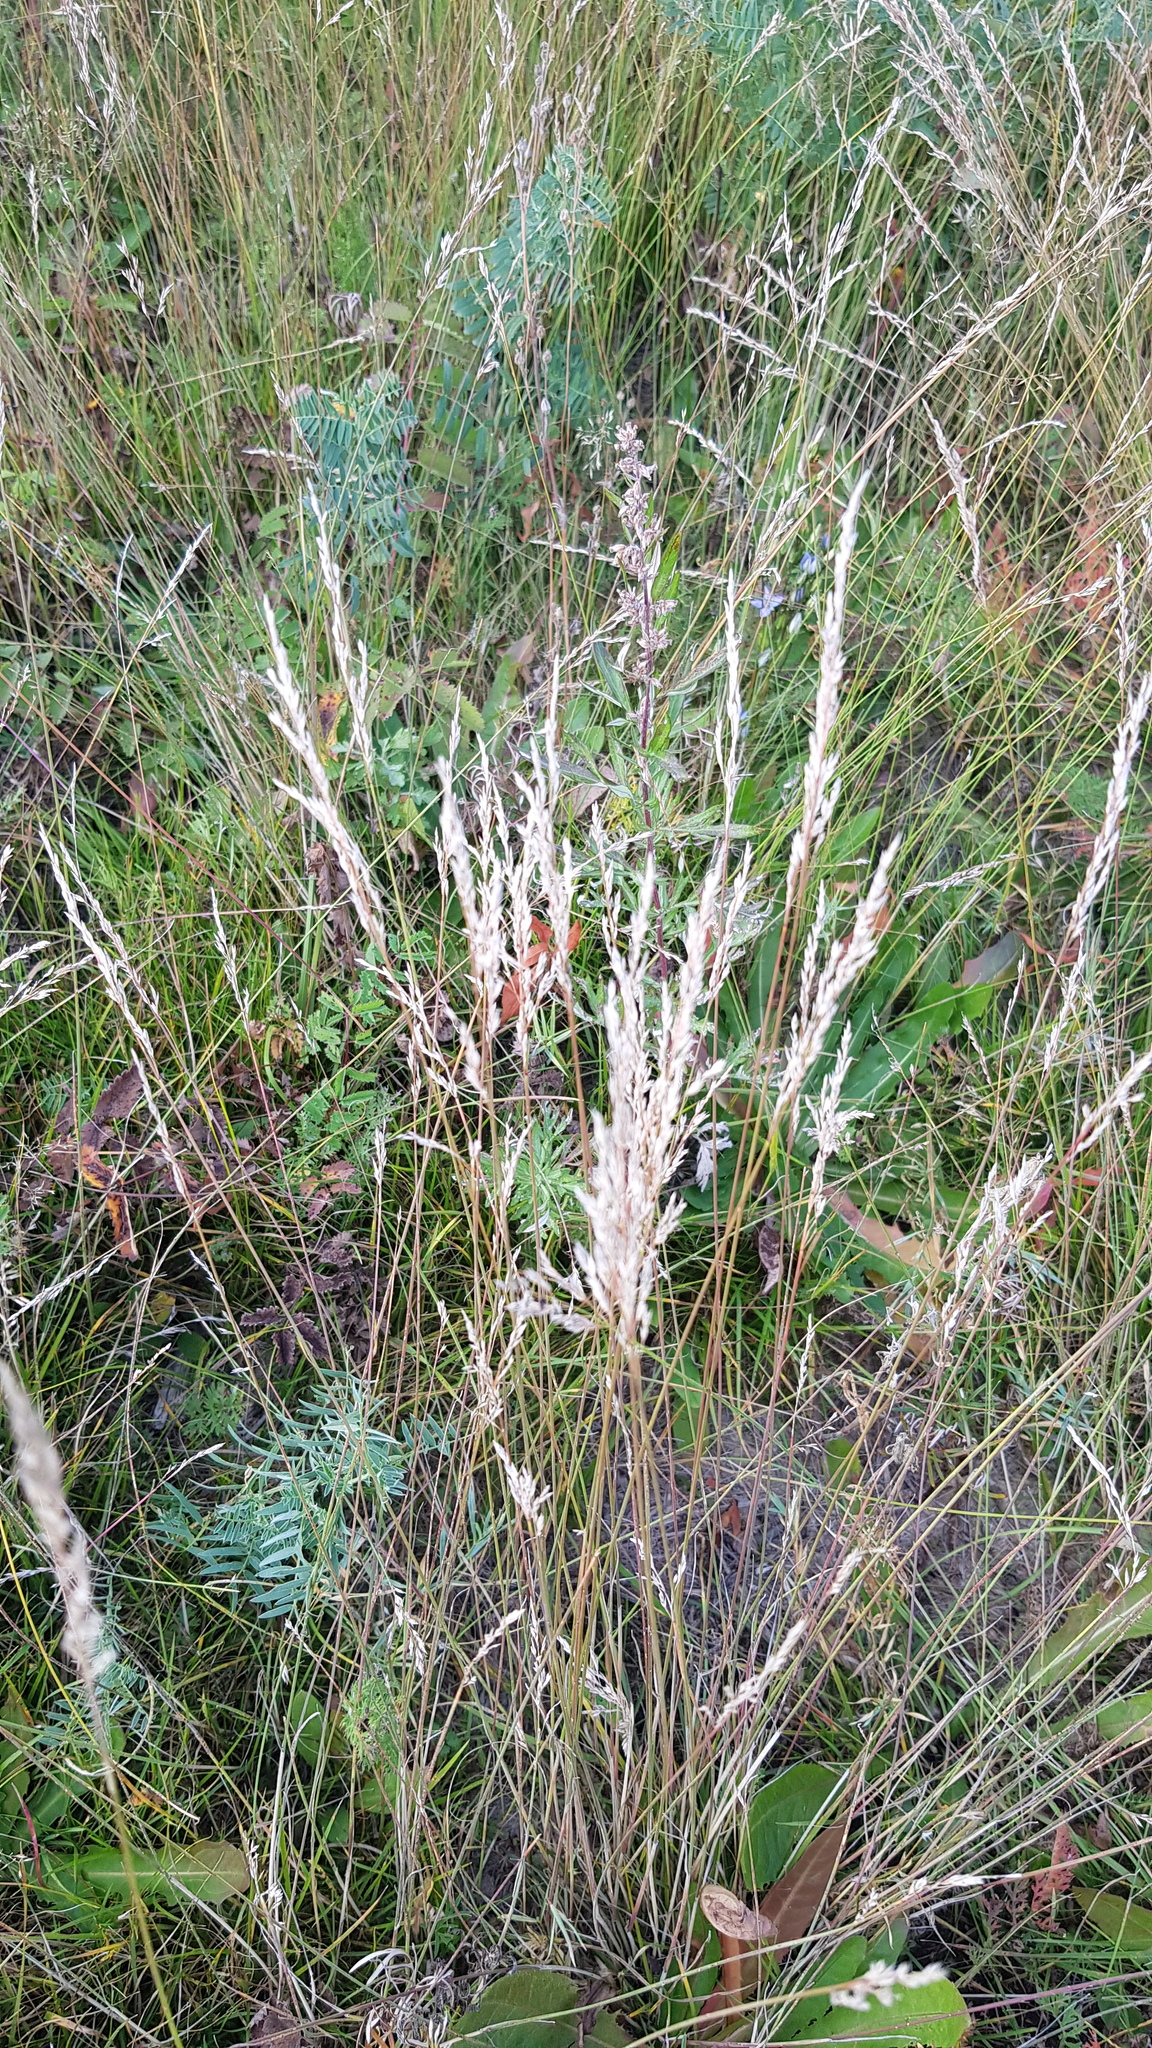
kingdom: Plantae
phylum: Tracheophyta
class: Liliopsida
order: Poales
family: Poaceae
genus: Poa
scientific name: Poa pratensis
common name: Kentucky bluegrass
